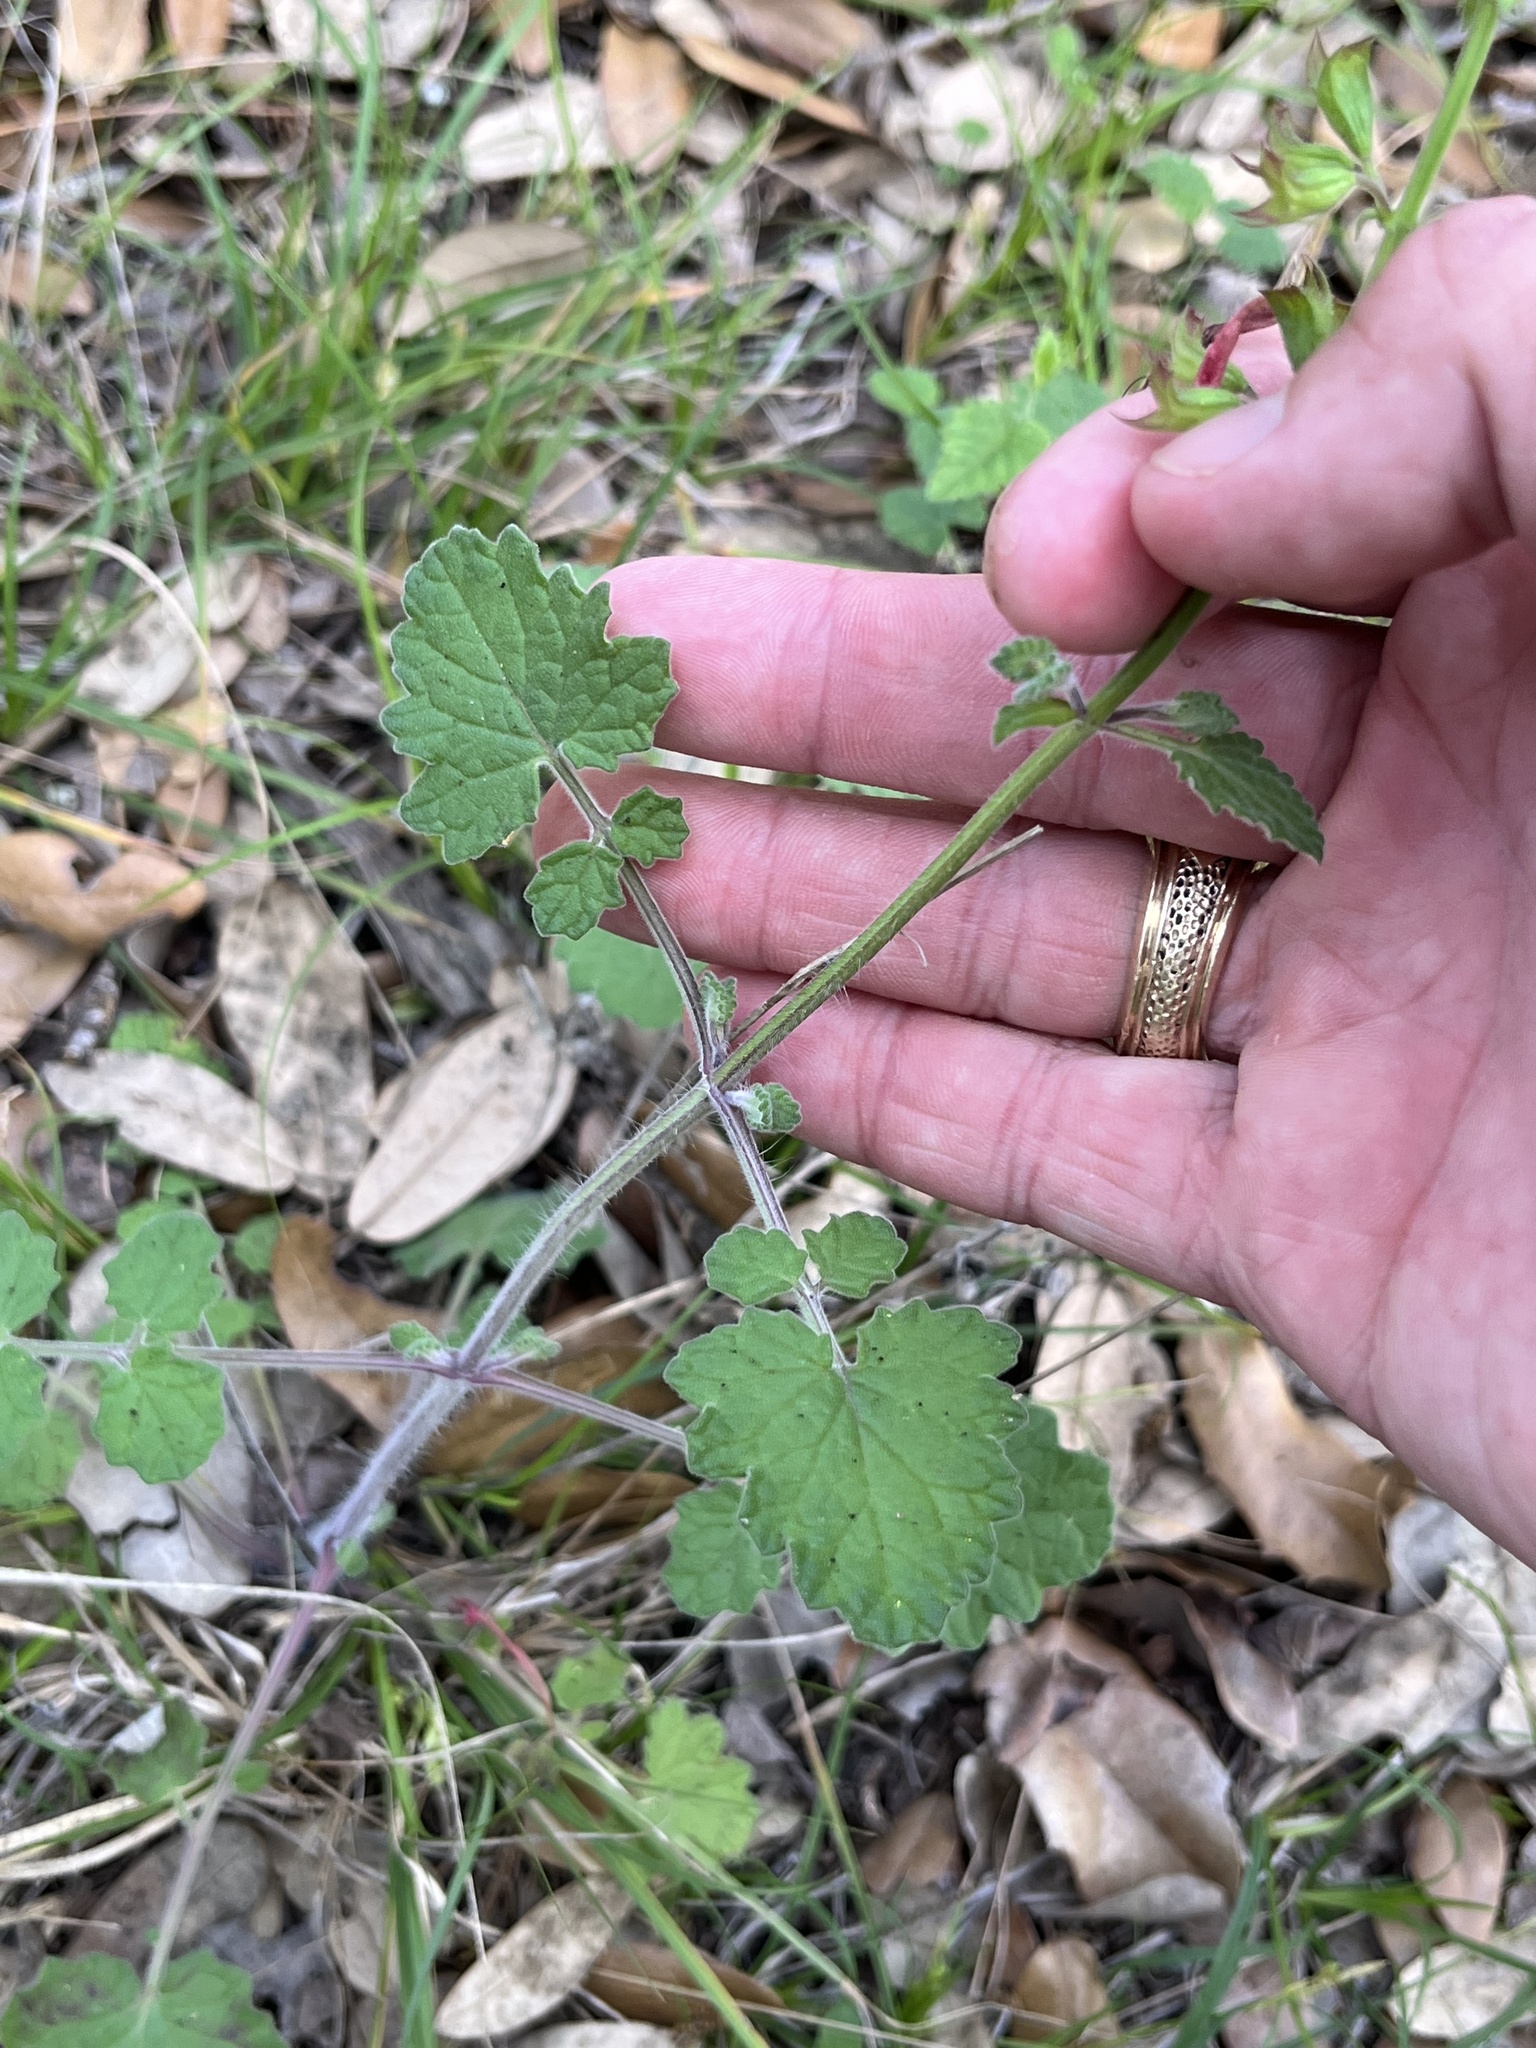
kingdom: Plantae
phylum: Tracheophyta
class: Magnoliopsida
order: Lamiales
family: Lamiaceae
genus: Salvia
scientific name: Salvia roemeriana
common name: Cedar sage
